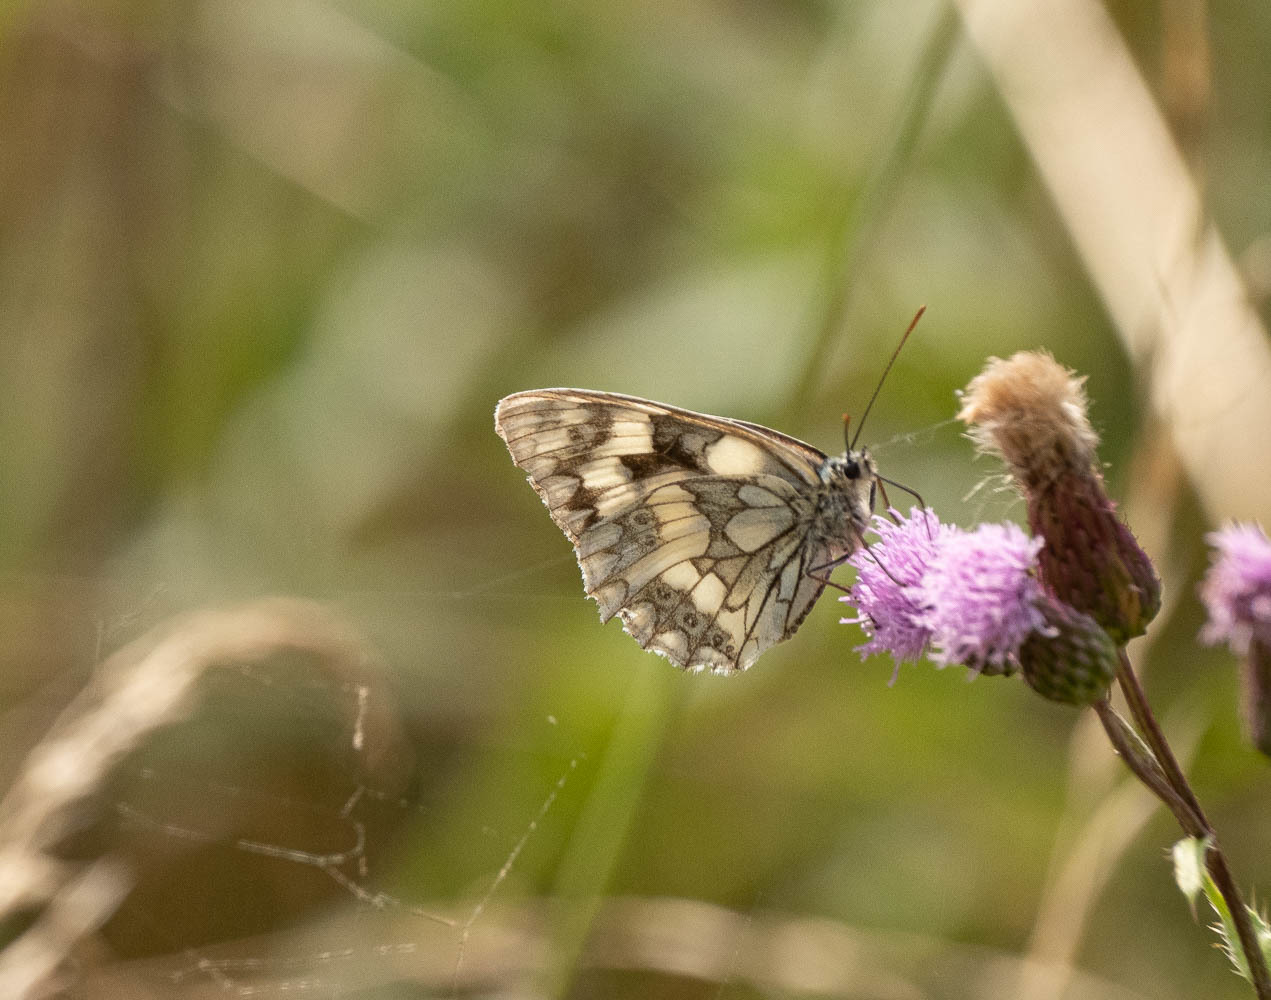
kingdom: Animalia
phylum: Arthropoda
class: Insecta
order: Lepidoptera
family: Nymphalidae
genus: Melanargia
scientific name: Melanargia galathea
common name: Marbled white
